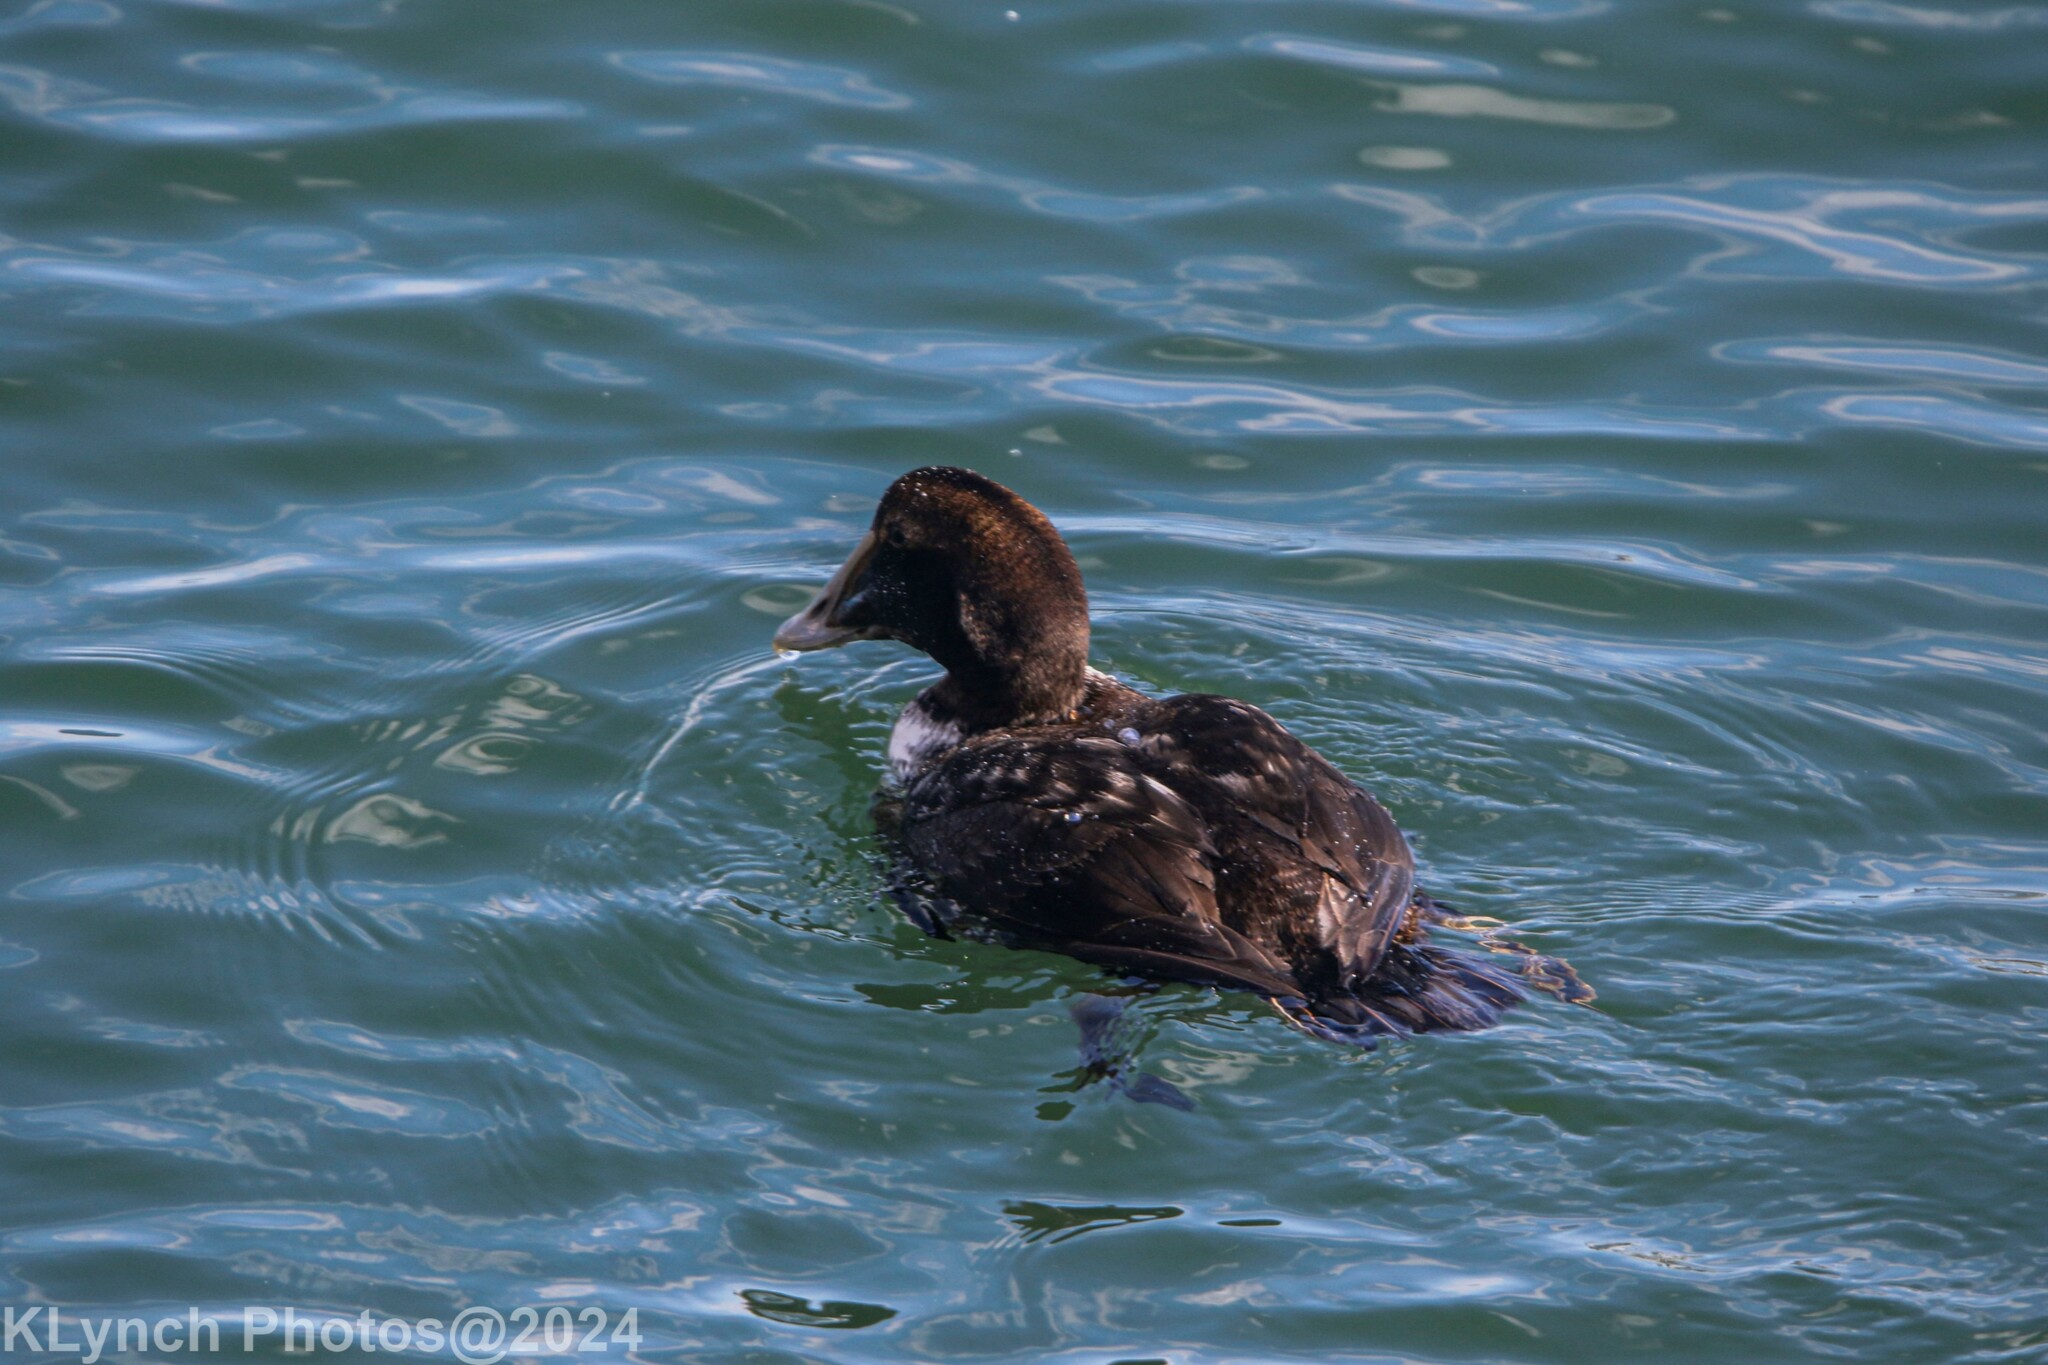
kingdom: Animalia
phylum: Chordata
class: Aves
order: Anseriformes
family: Anatidae
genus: Somateria
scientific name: Somateria mollissima
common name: Common eider
